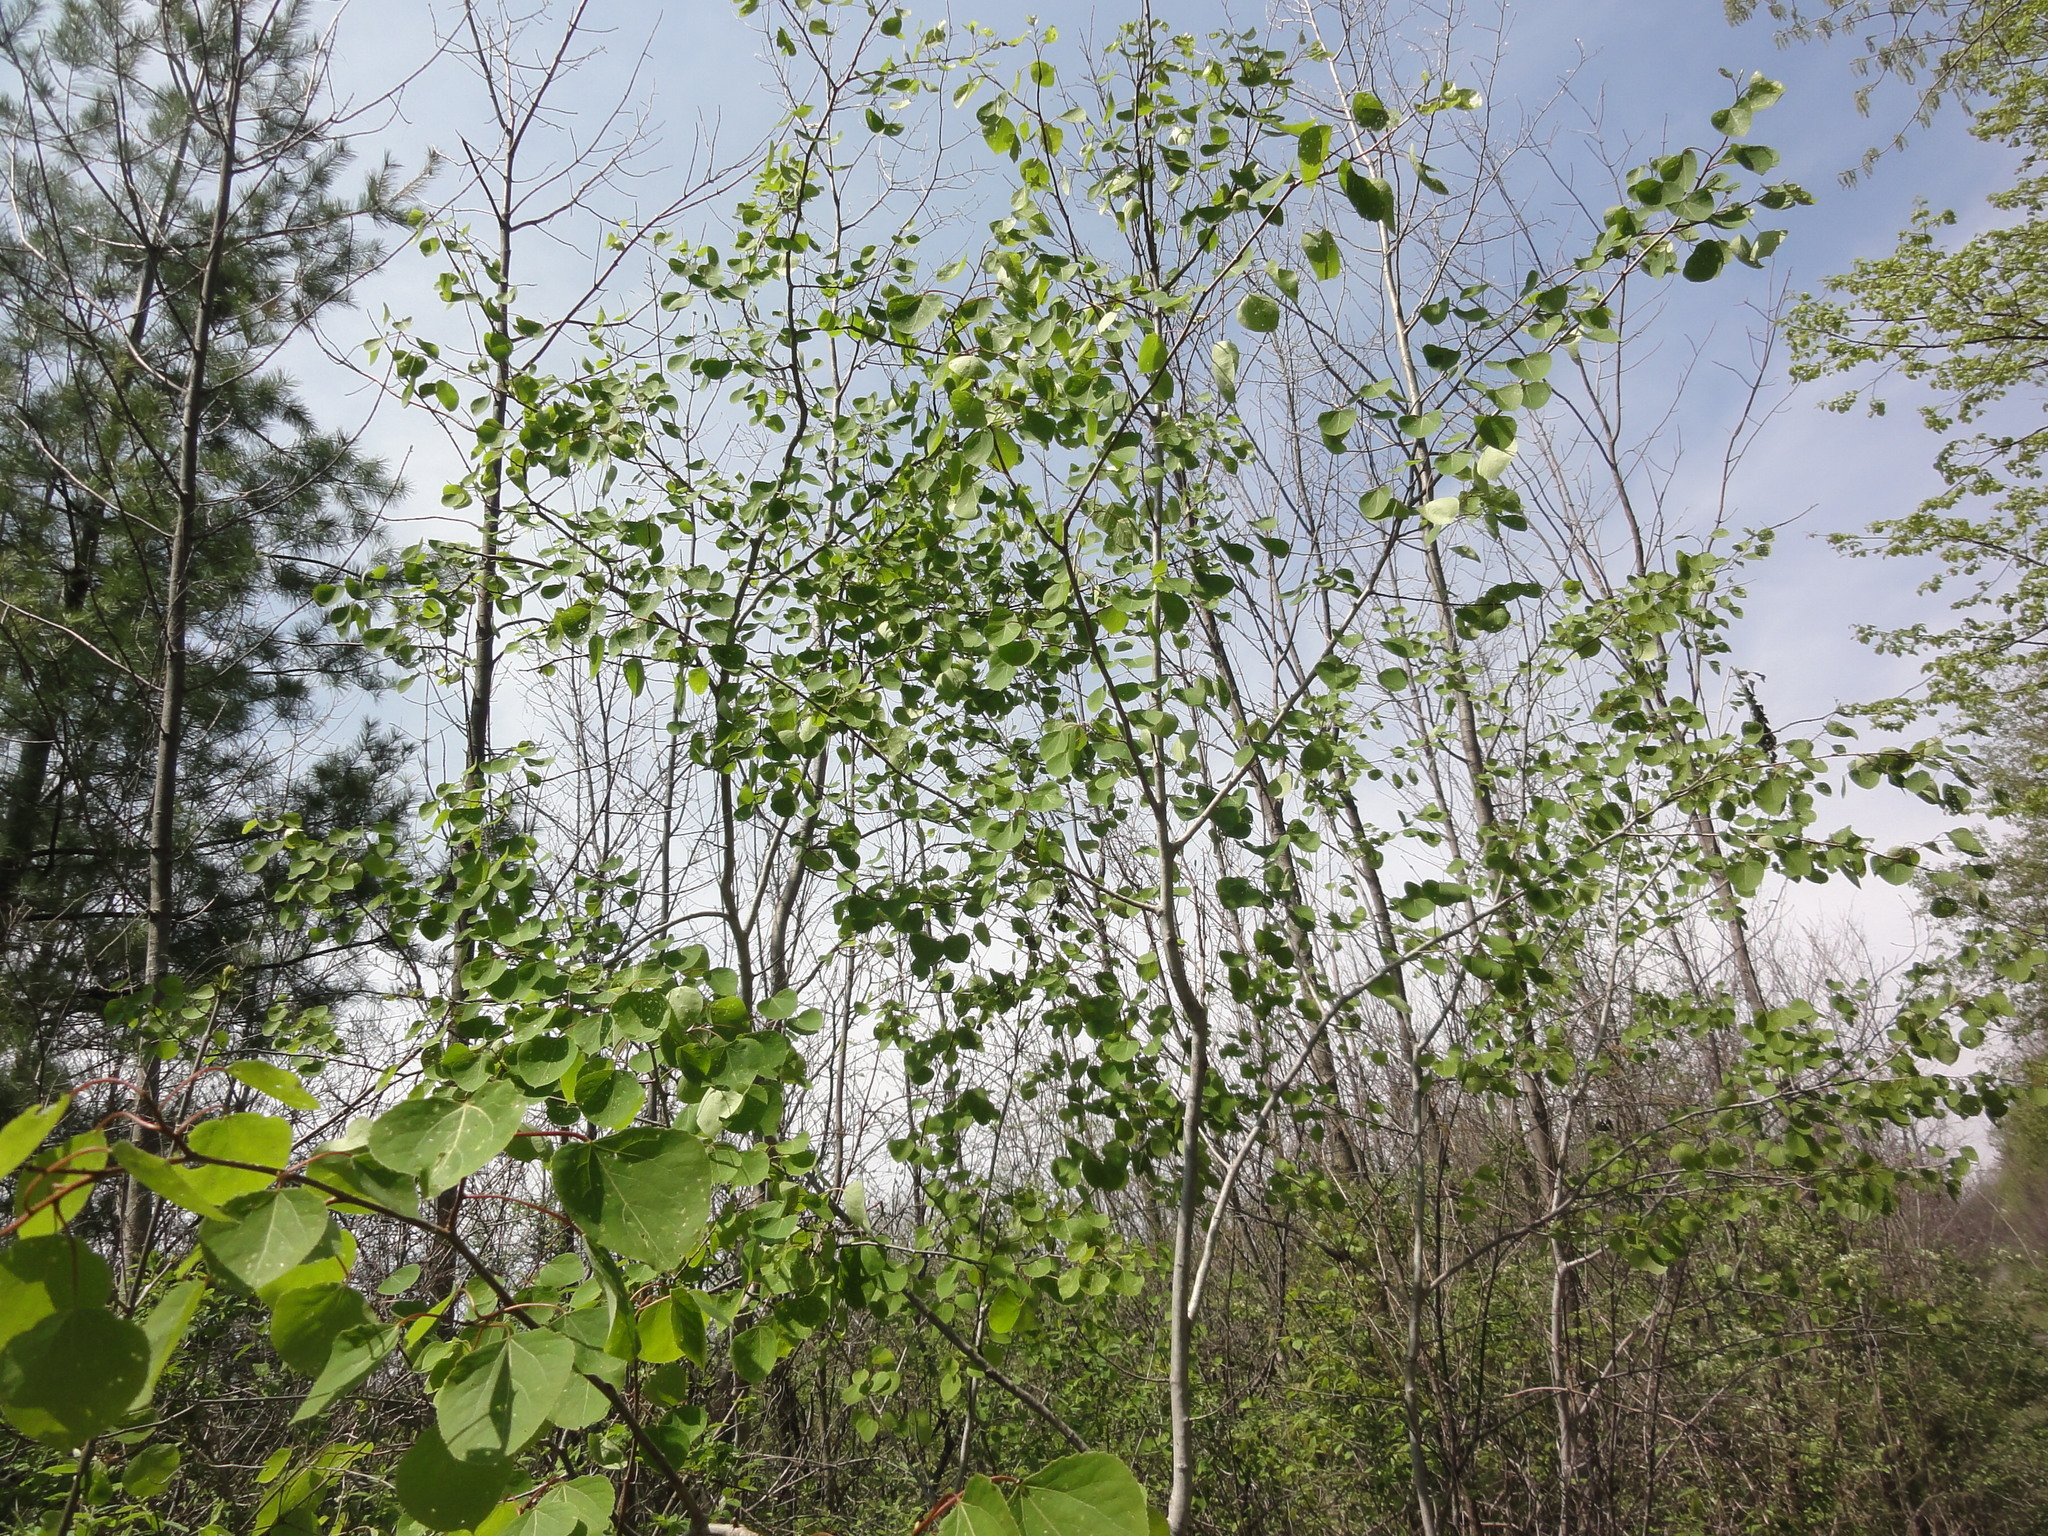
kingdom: Plantae
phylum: Tracheophyta
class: Magnoliopsida
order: Malpighiales
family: Salicaceae
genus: Populus
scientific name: Populus tremuloides
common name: Quaking aspen
